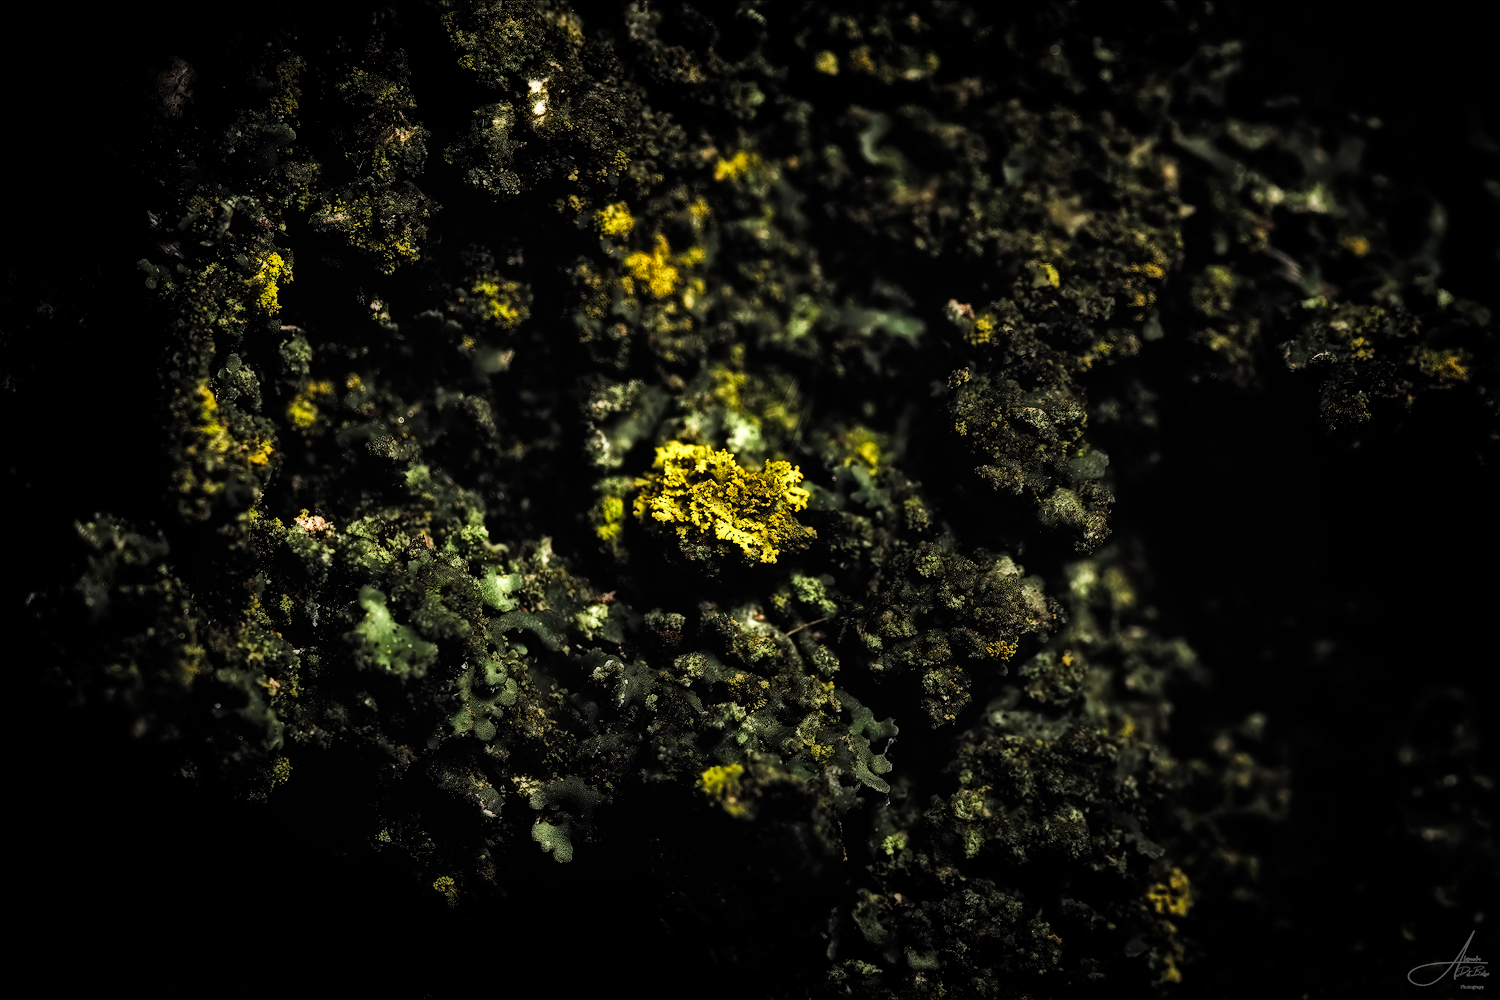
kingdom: Fungi
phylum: Ascomycota
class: Candelariomycetes
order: Candelariales
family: Candelariaceae
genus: Candelaria
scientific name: Candelaria concolor
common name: Candleflame lichen
